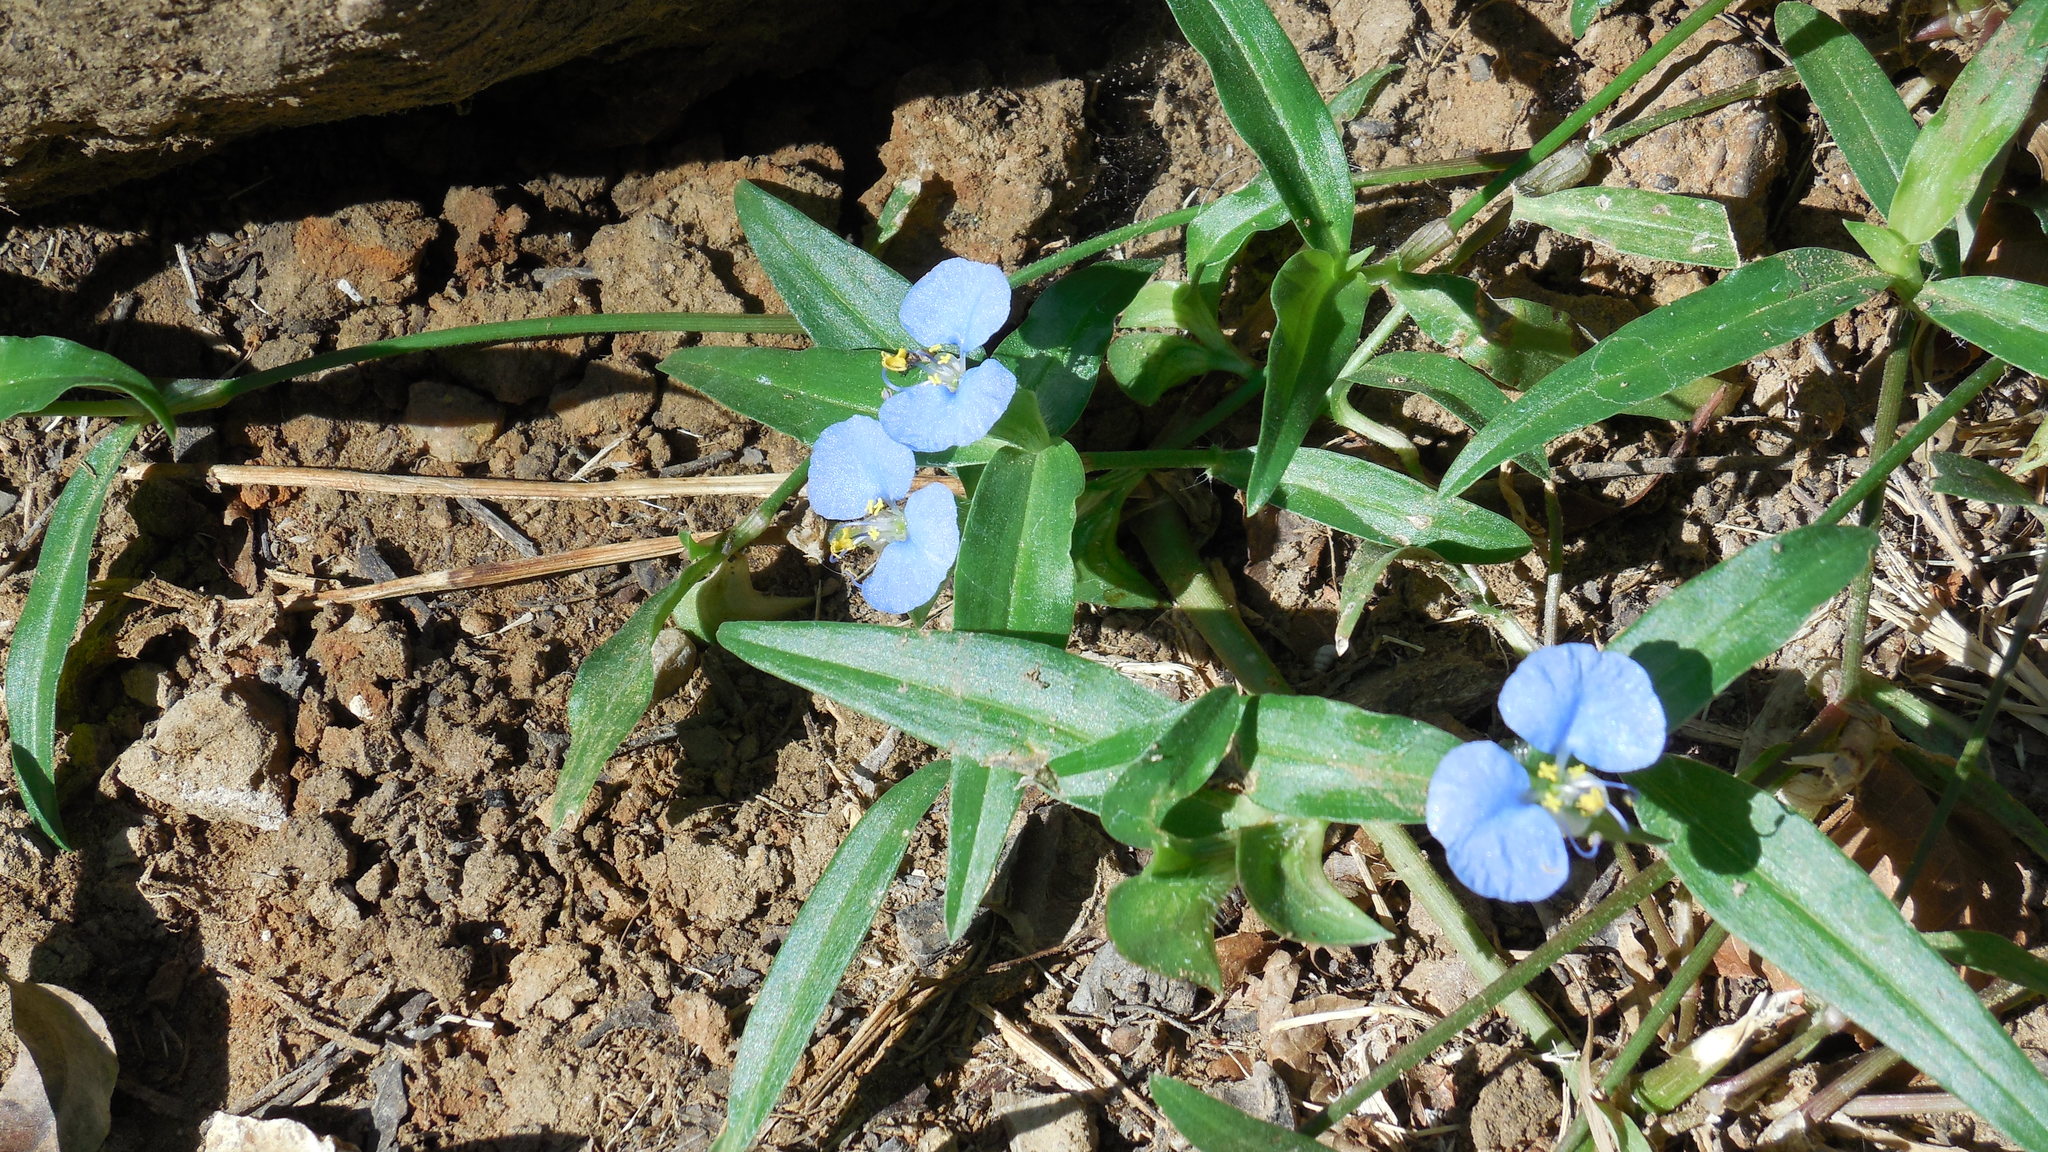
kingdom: Plantae
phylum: Tracheophyta
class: Liliopsida
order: Commelinales
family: Commelinaceae
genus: Commelina
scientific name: Commelina erecta
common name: Blousel blommetjie
